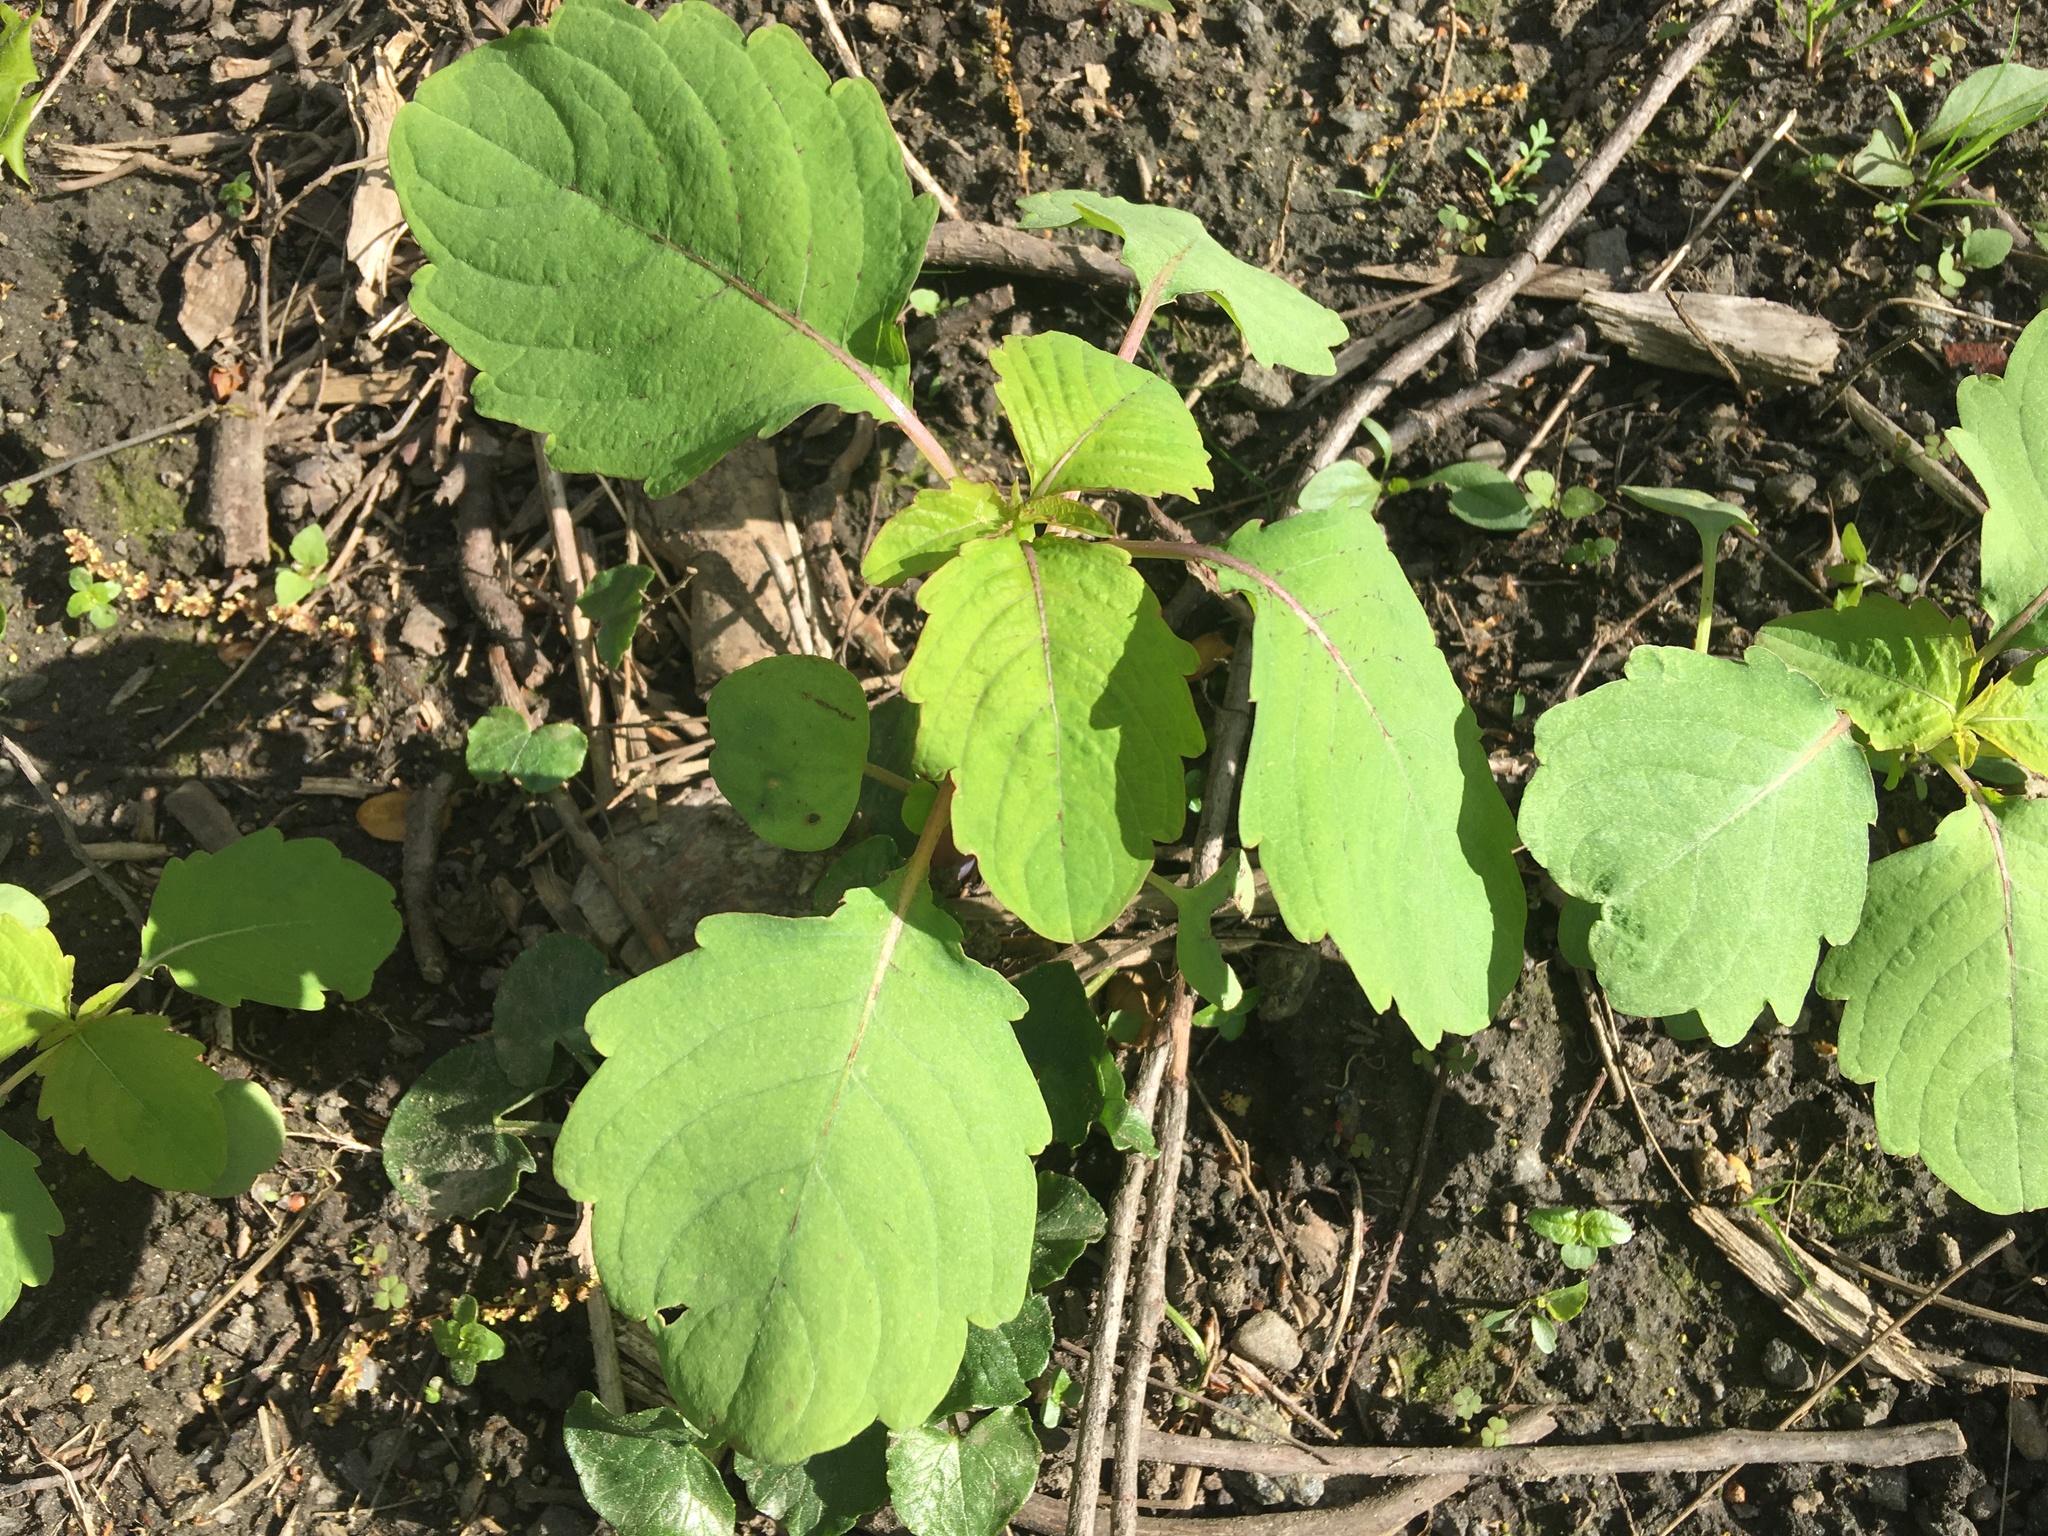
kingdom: Plantae
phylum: Tracheophyta
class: Magnoliopsida
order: Ericales
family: Balsaminaceae
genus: Impatiens
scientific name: Impatiens capensis
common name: Orange balsam
